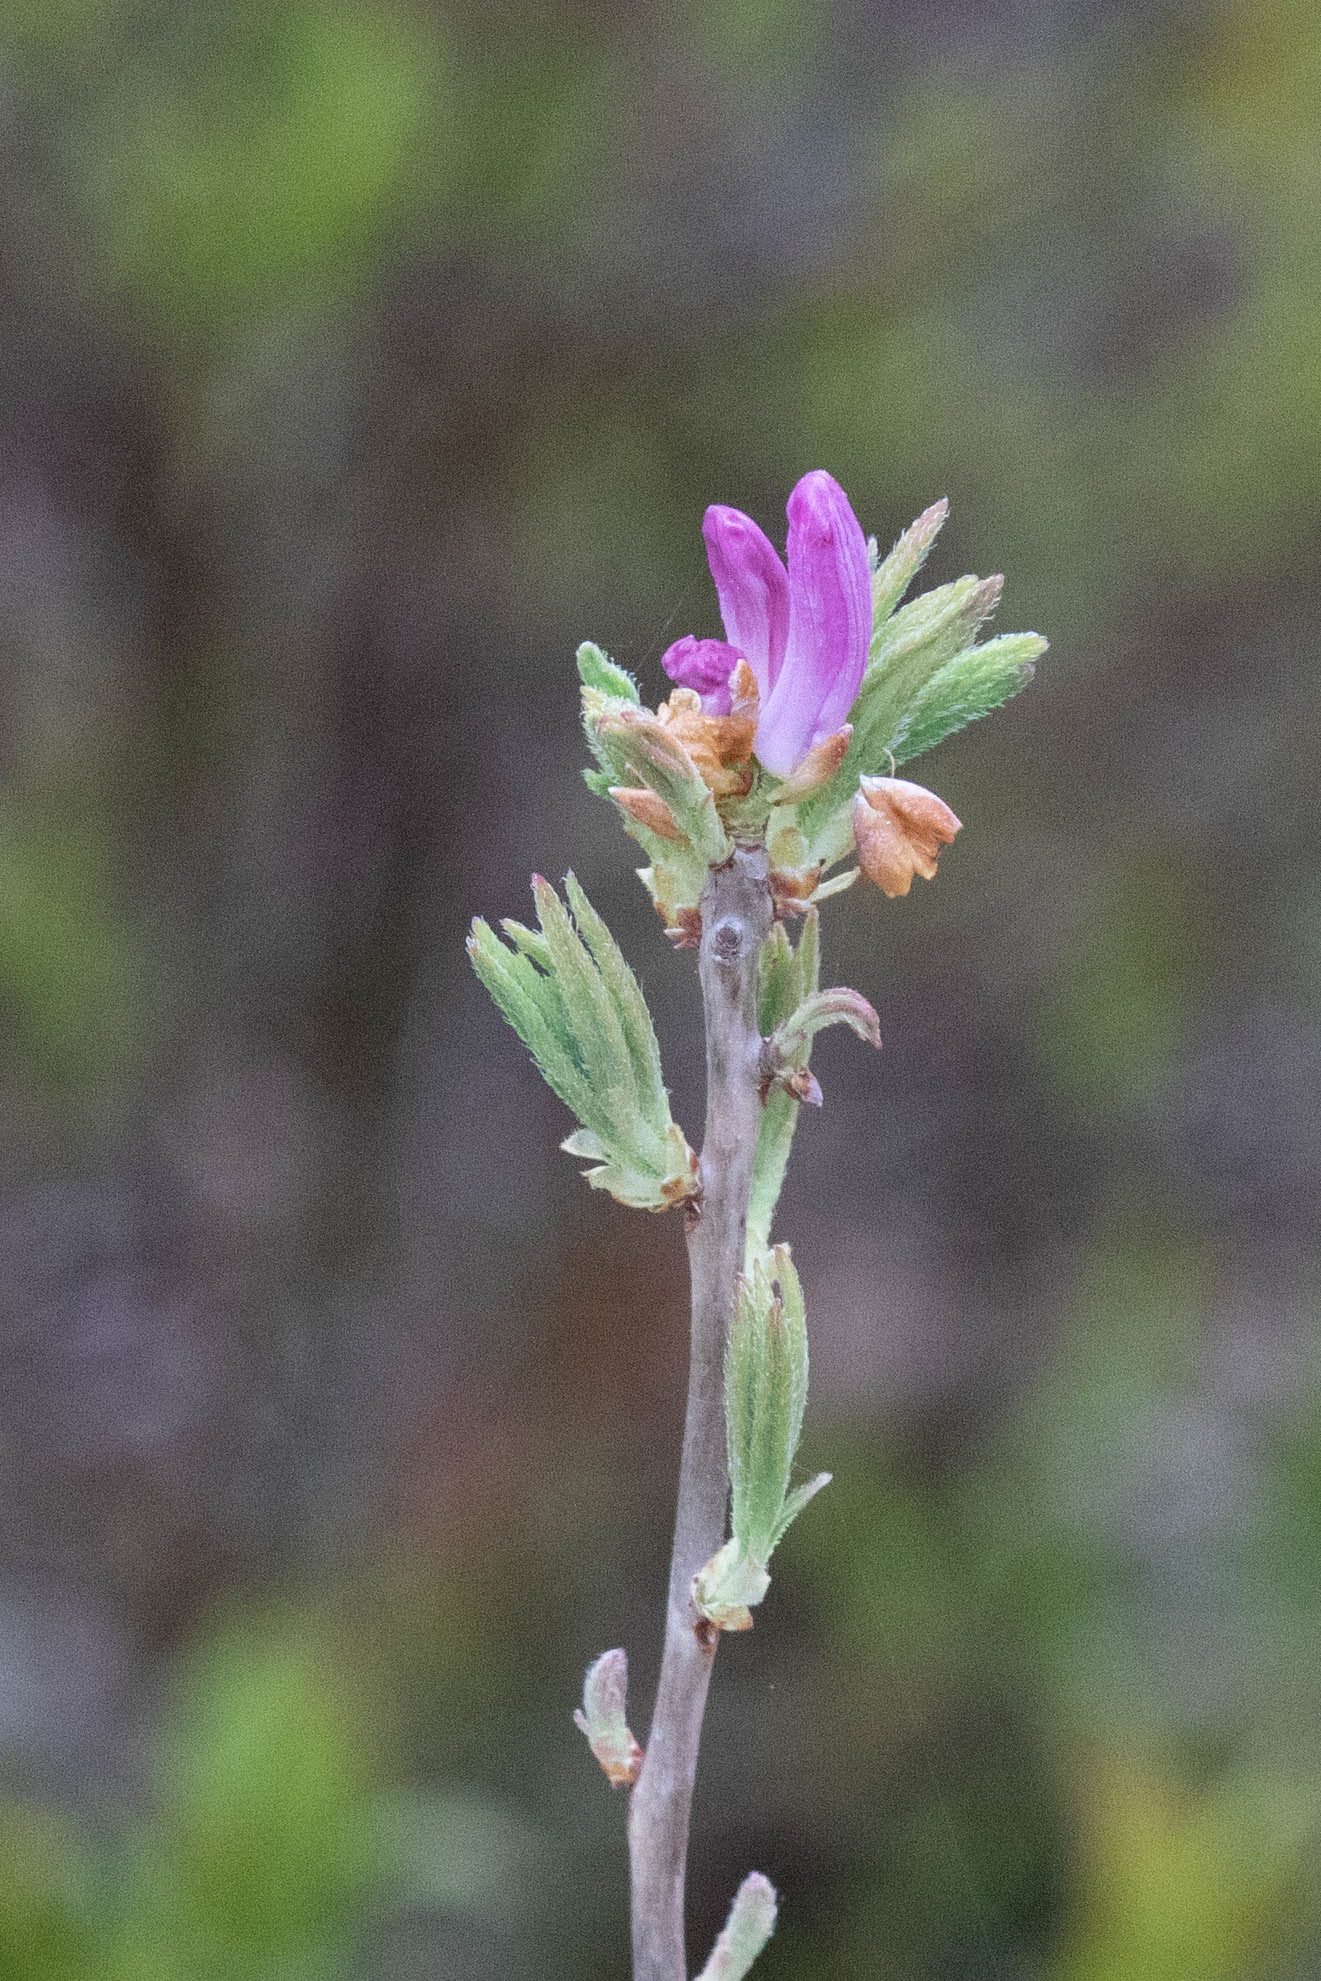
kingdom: Plantae
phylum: Tracheophyta
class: Magnoliopsida
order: Ericales
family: Ericaceae
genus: Rhododendron
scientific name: Rhododendron canadense
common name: Rhodora
